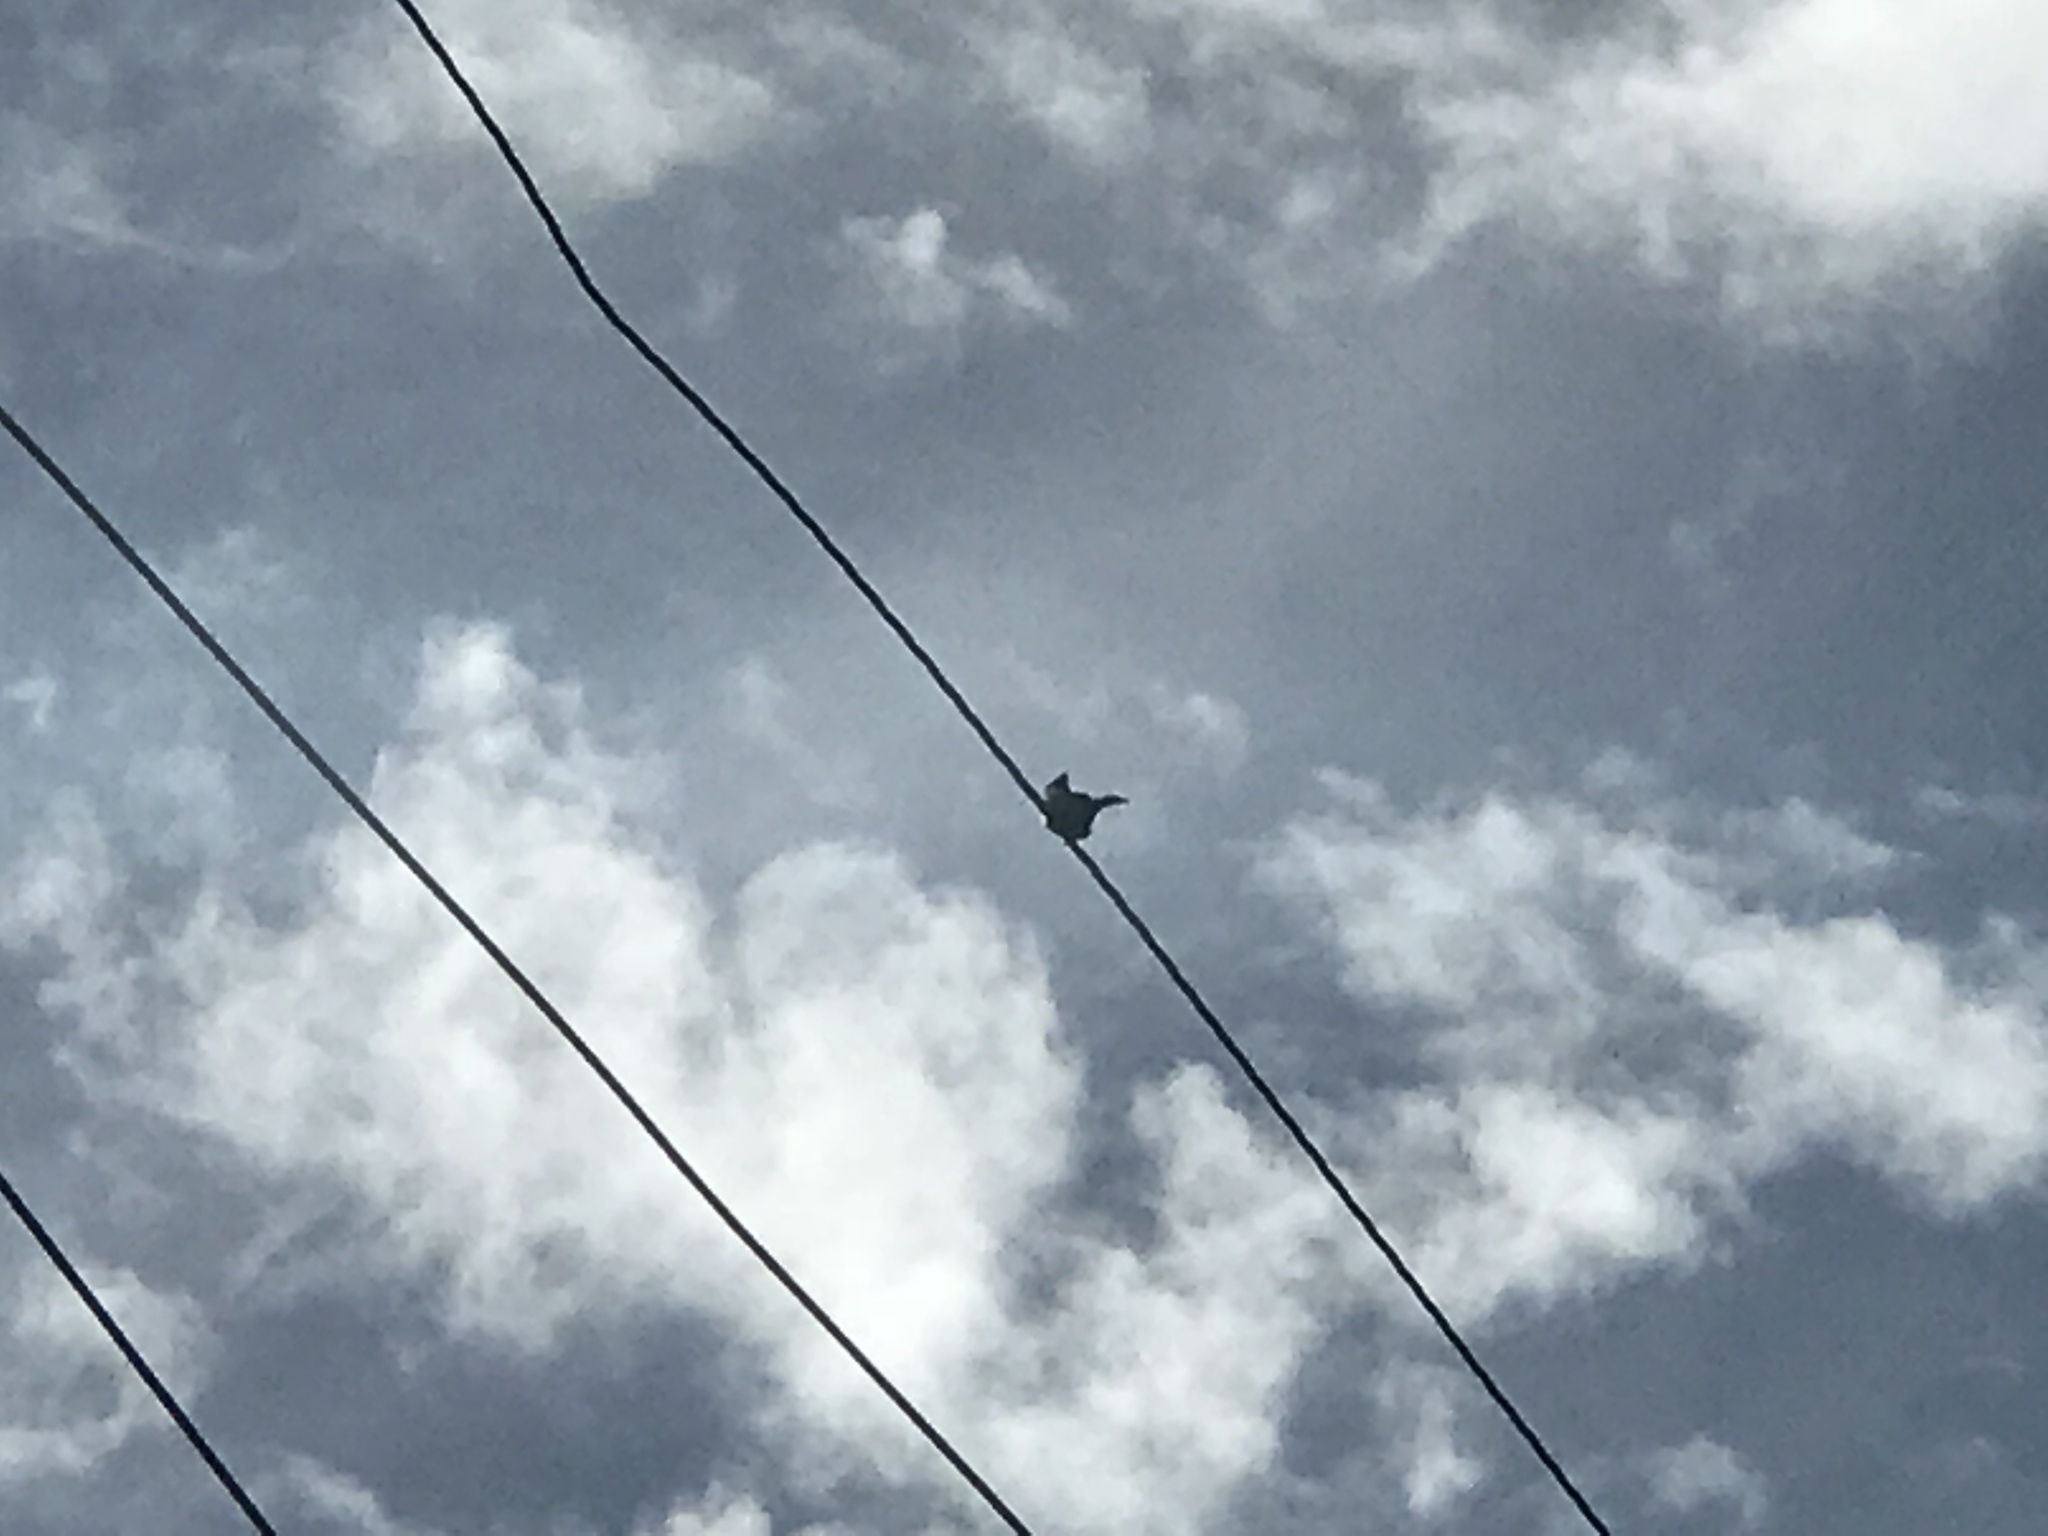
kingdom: Animalia
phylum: Chordata
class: Aves
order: Passeriformes
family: Ptilogonatidae
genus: Phainopepla
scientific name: Phainopepla nitens
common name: Phainopepla
